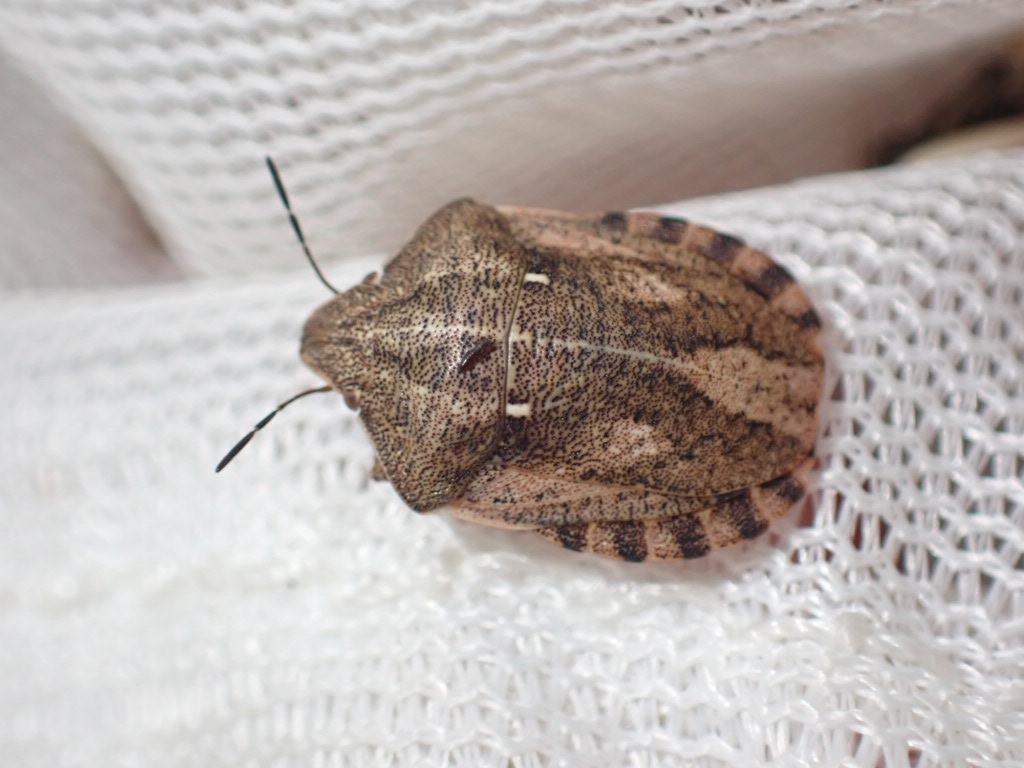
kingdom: Animalia
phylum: Arthropoda
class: Insecta
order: Hemiptera
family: Scutelleridae
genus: Eurygaster
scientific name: Eurygaster testudinaria
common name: Tortoise bug
